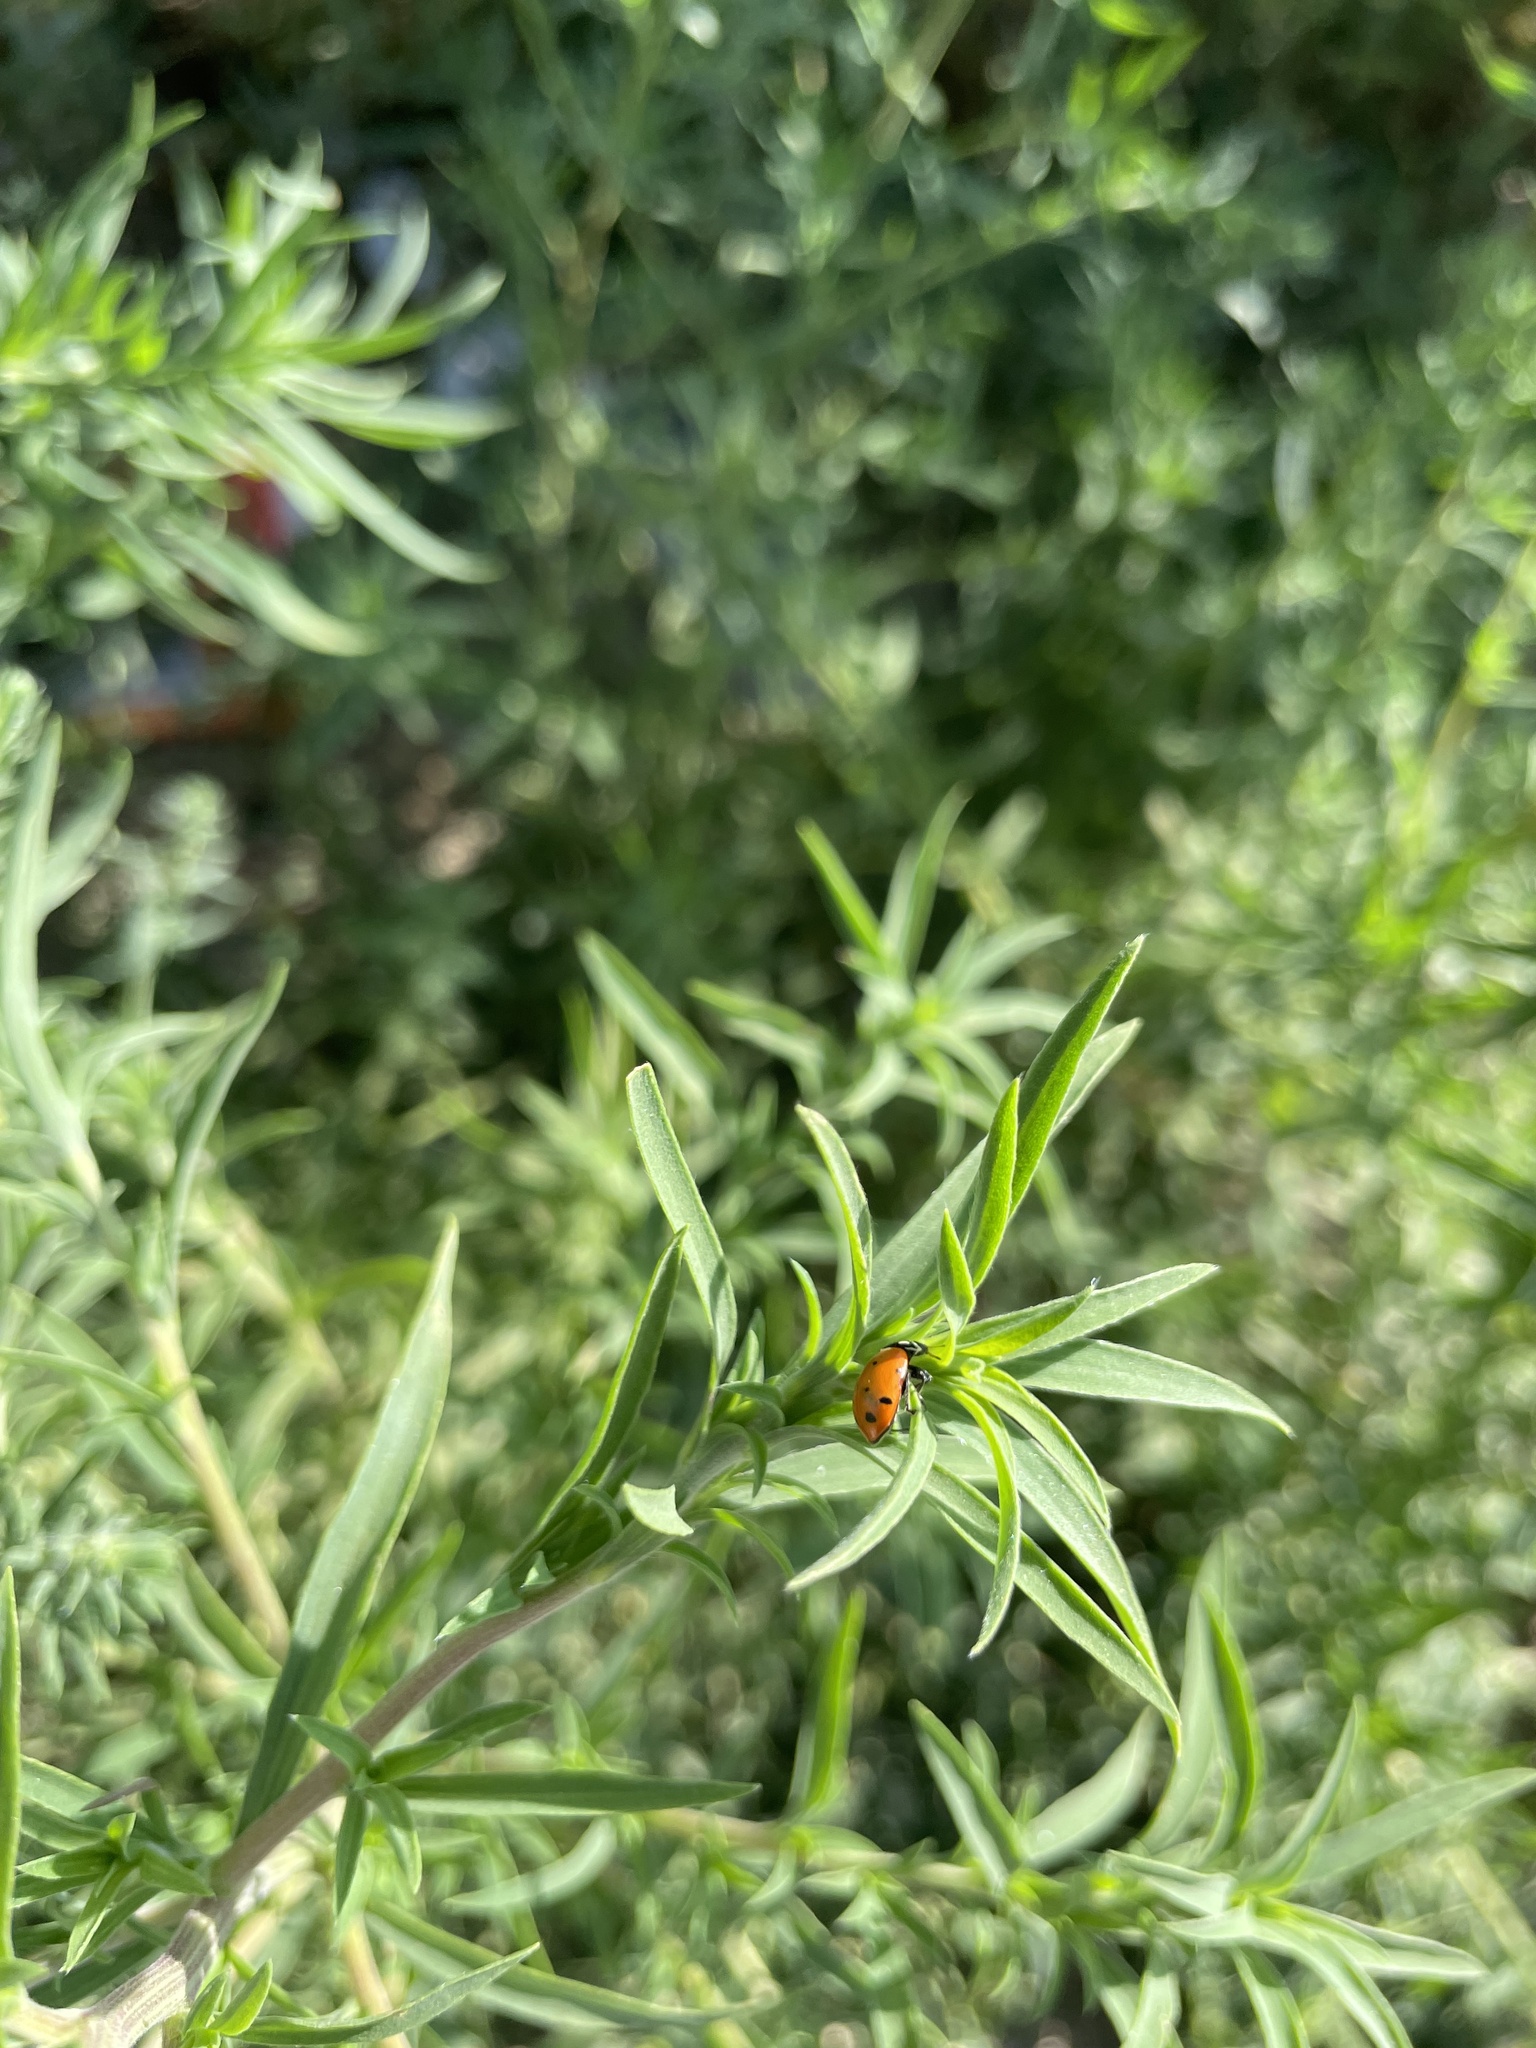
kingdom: Animalia
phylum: Arthropoda
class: Insecta
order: Coleoptera
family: Coccinellidae
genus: Hippodamia
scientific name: Hippodamia convergens
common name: Convergent lady beetle
